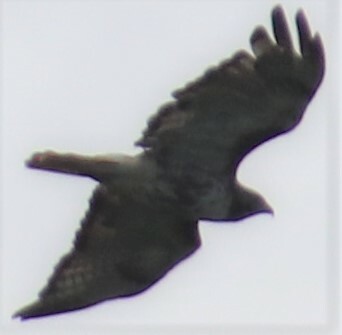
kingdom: Animalia
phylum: Chordata
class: Aves
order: Accipitriformes
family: Accipitridae
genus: Buteo
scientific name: Buteo jamaicensis
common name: Red-tailed hawk
